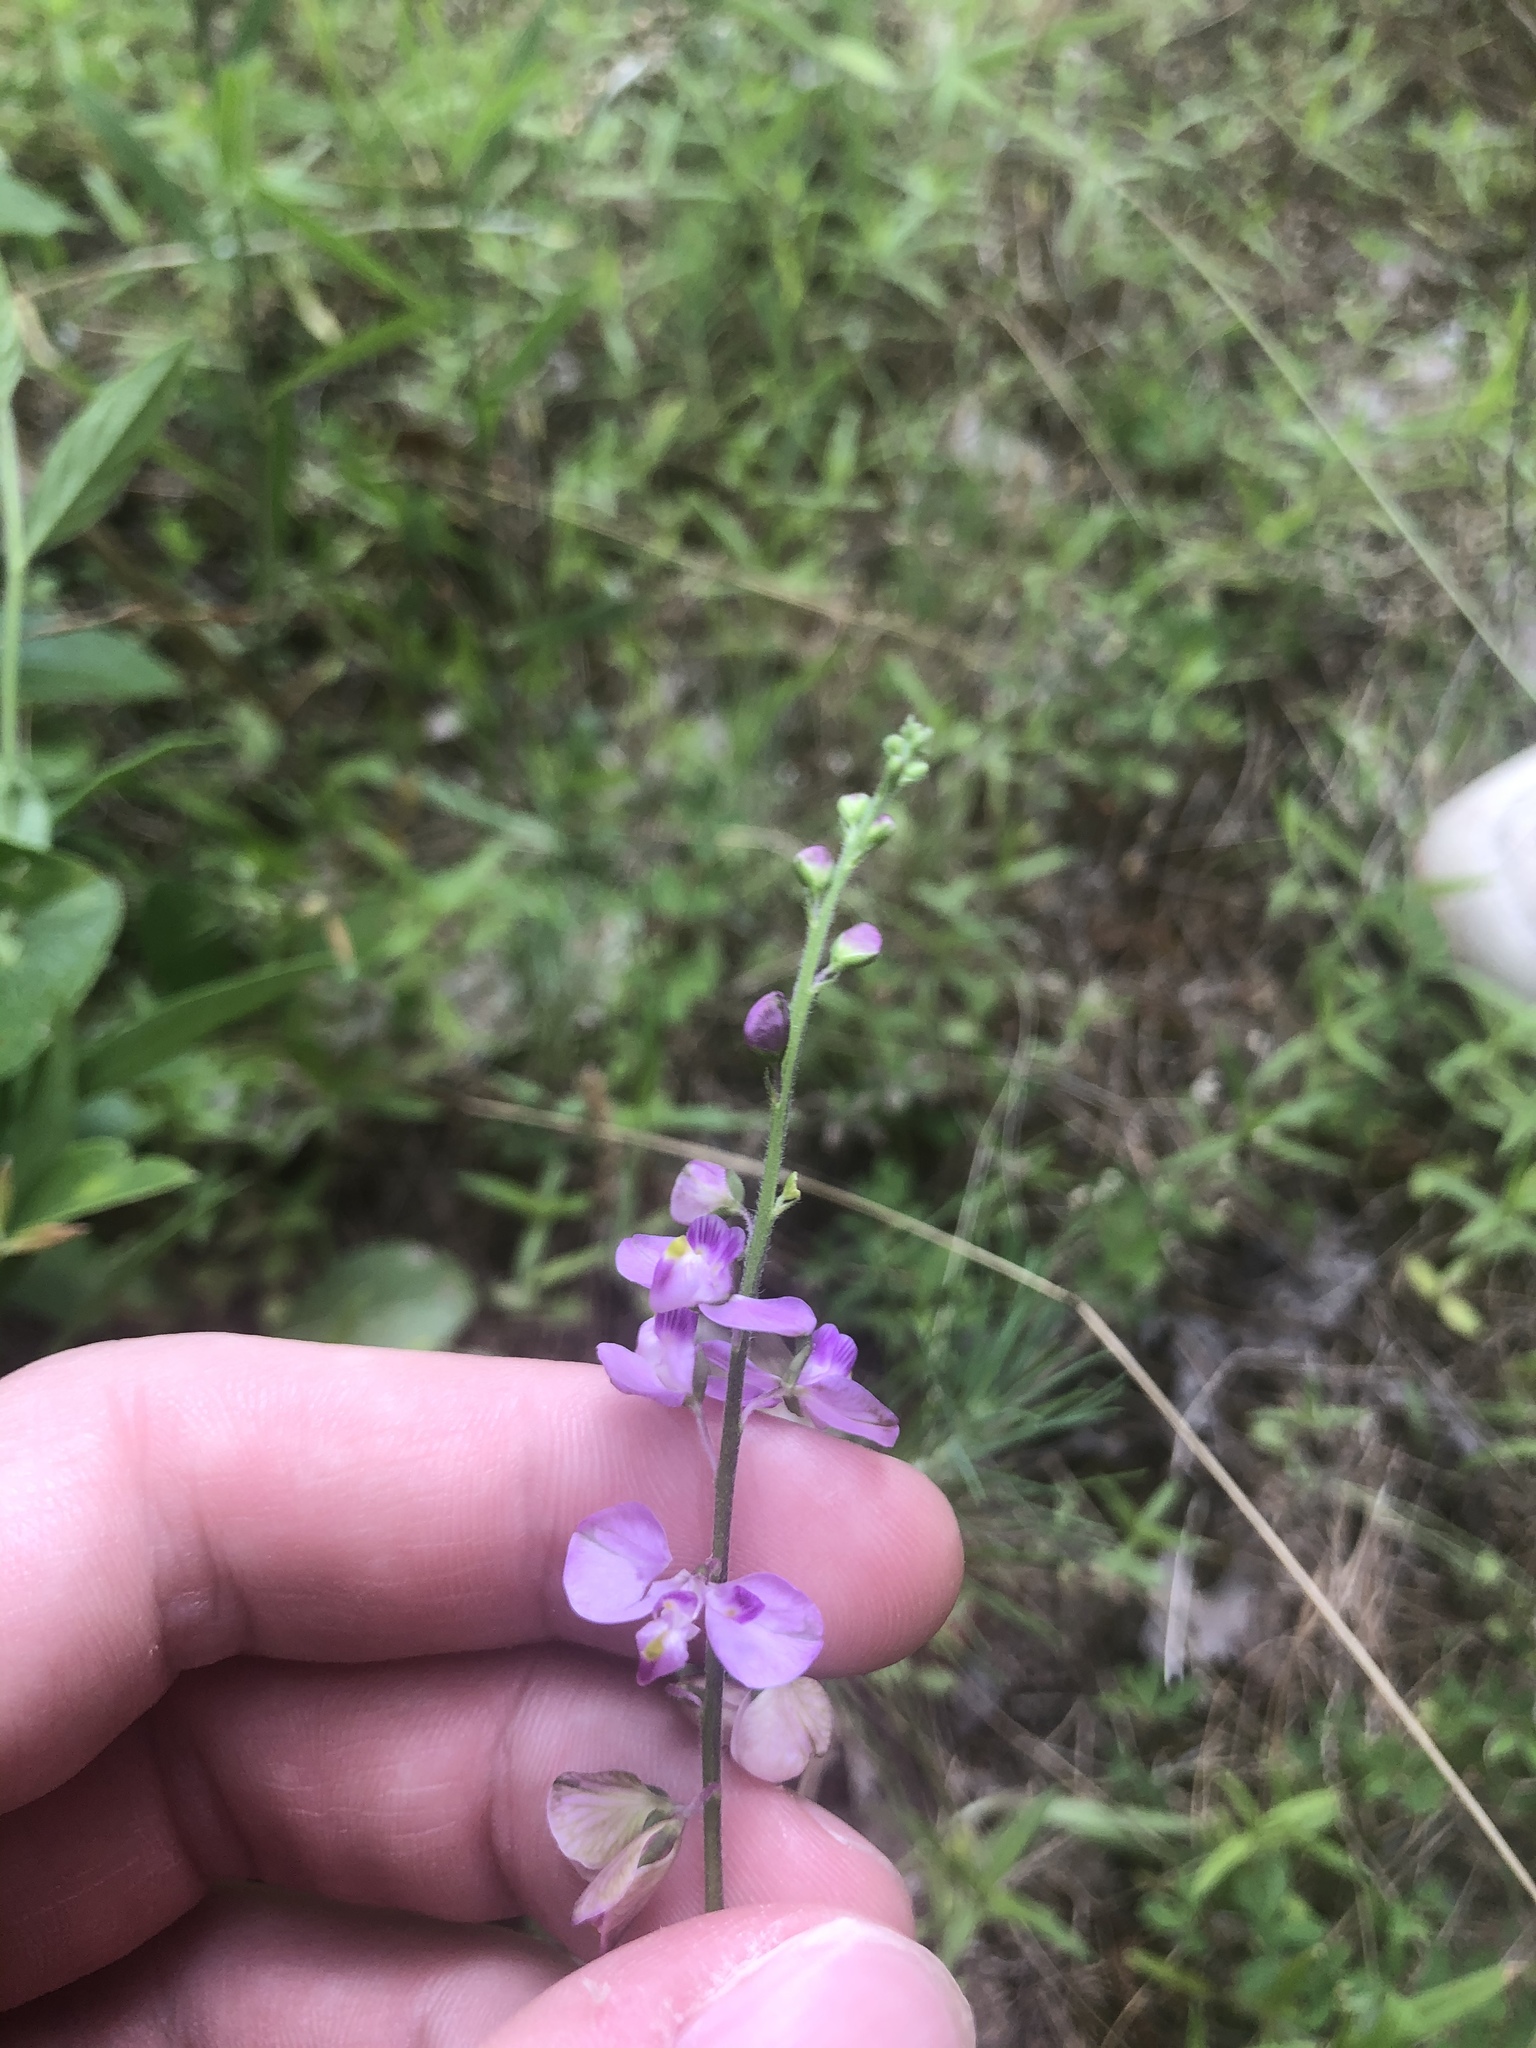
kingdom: Plantae
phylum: Tracheophyta
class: Magnoliopsida
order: Fabales
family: Polygalaceae
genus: Asemeia
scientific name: Asemeia grandiflora
